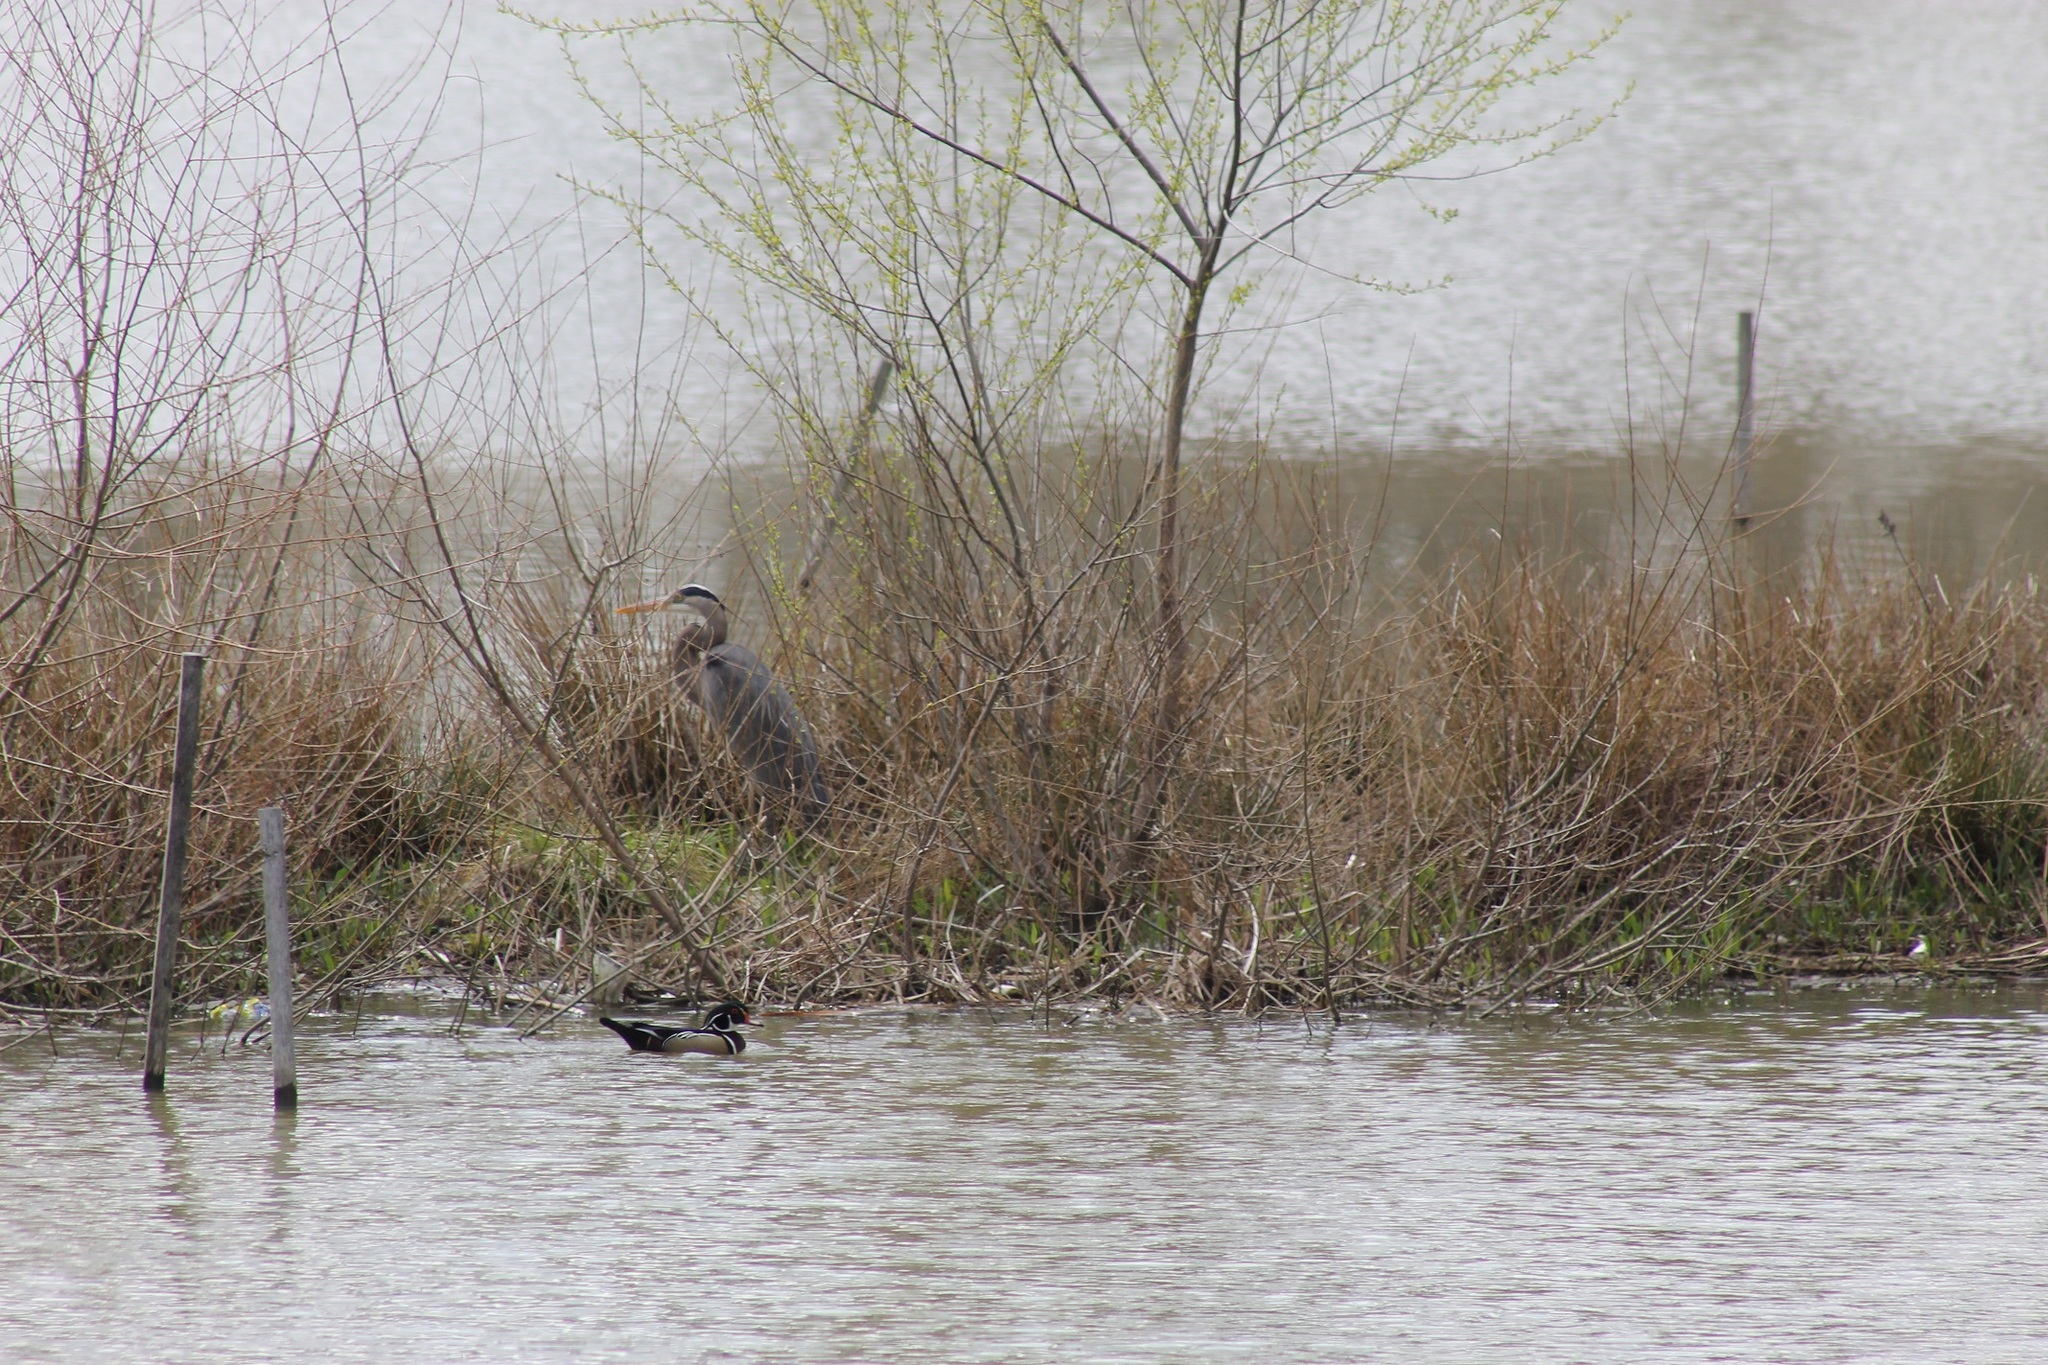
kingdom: Animalia
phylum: Chordata
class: Aves
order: Anseriformes
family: Anatidae
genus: Aix
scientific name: Aix sponsa
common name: Wood duck
